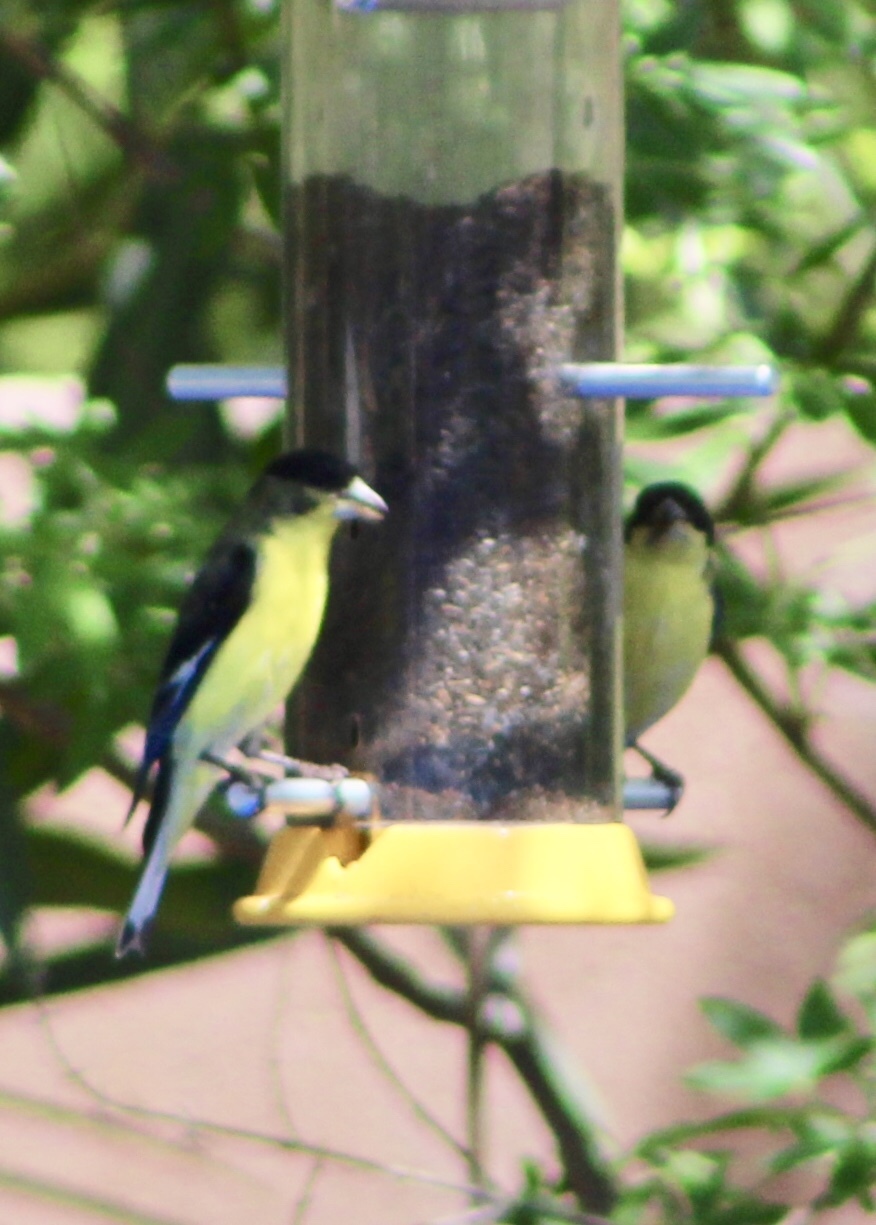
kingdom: Animalia
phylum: Chordata
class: Aves
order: Passeriformes
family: Fringillidae
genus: Spinus
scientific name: Spinus psaltria
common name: Lesser goldfinch
